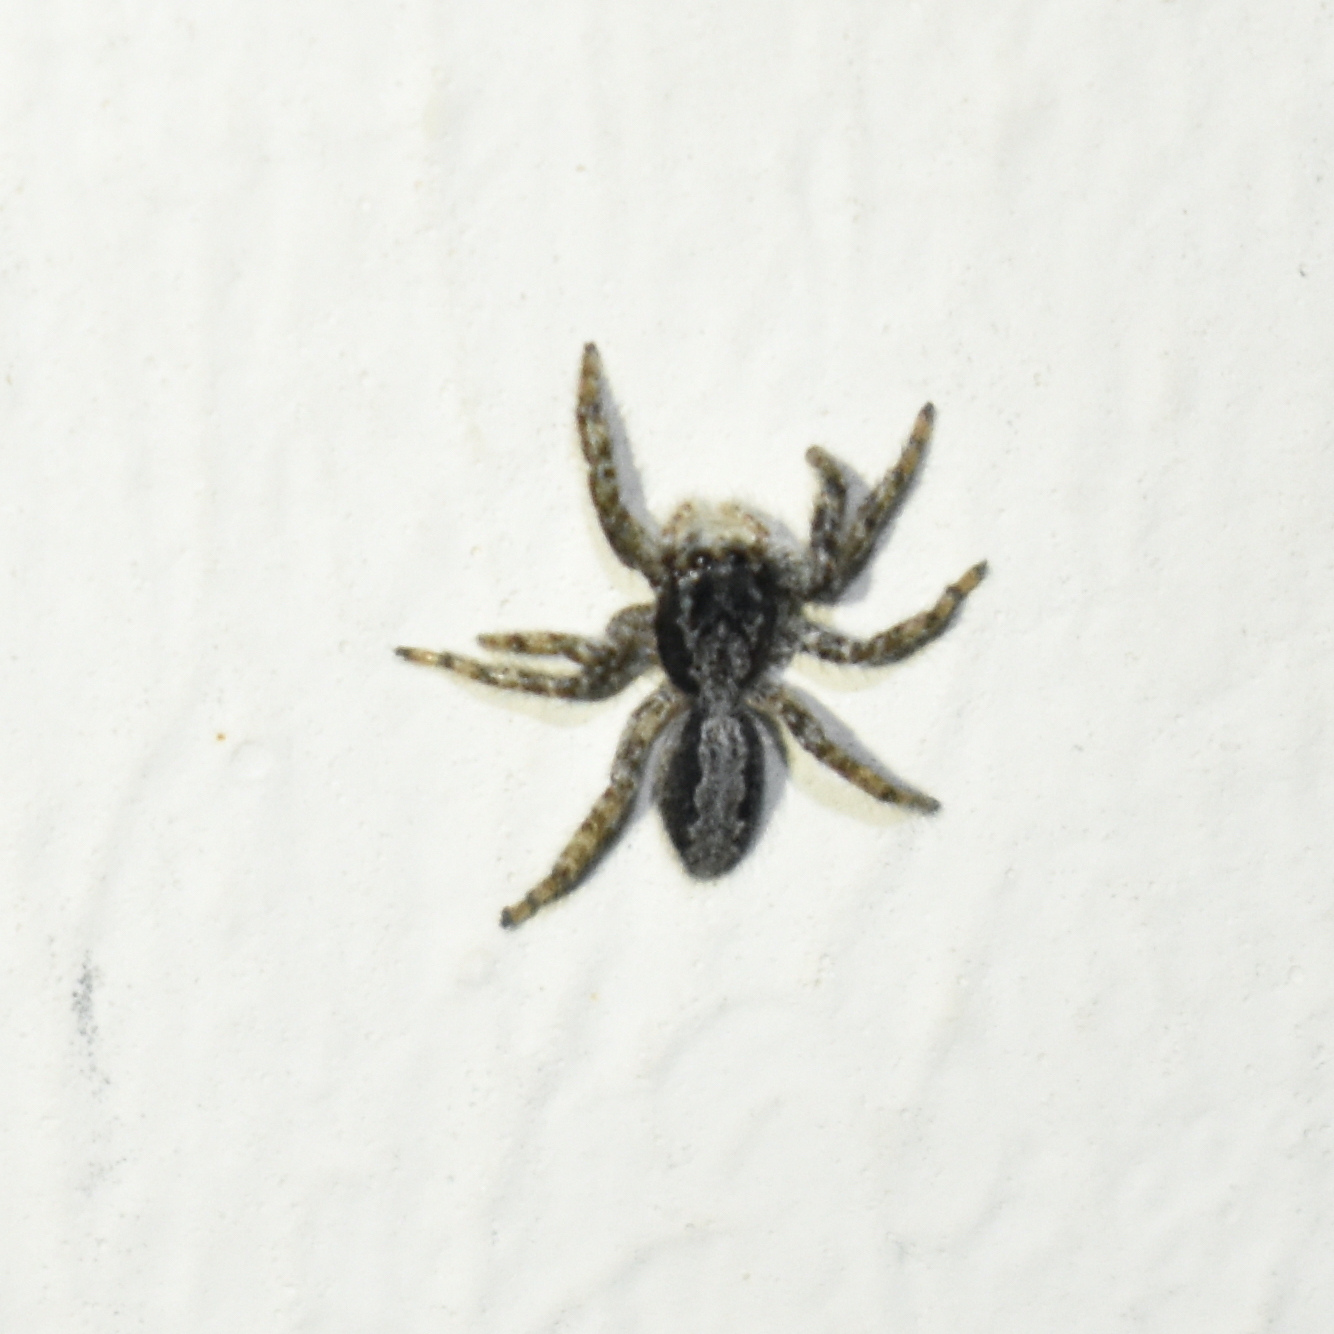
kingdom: Animalia
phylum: Arthropoda
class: Arachnida
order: Araneae
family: Salticidae
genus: Platycryptus
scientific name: Platycryptus californicus
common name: Jumping spiders
